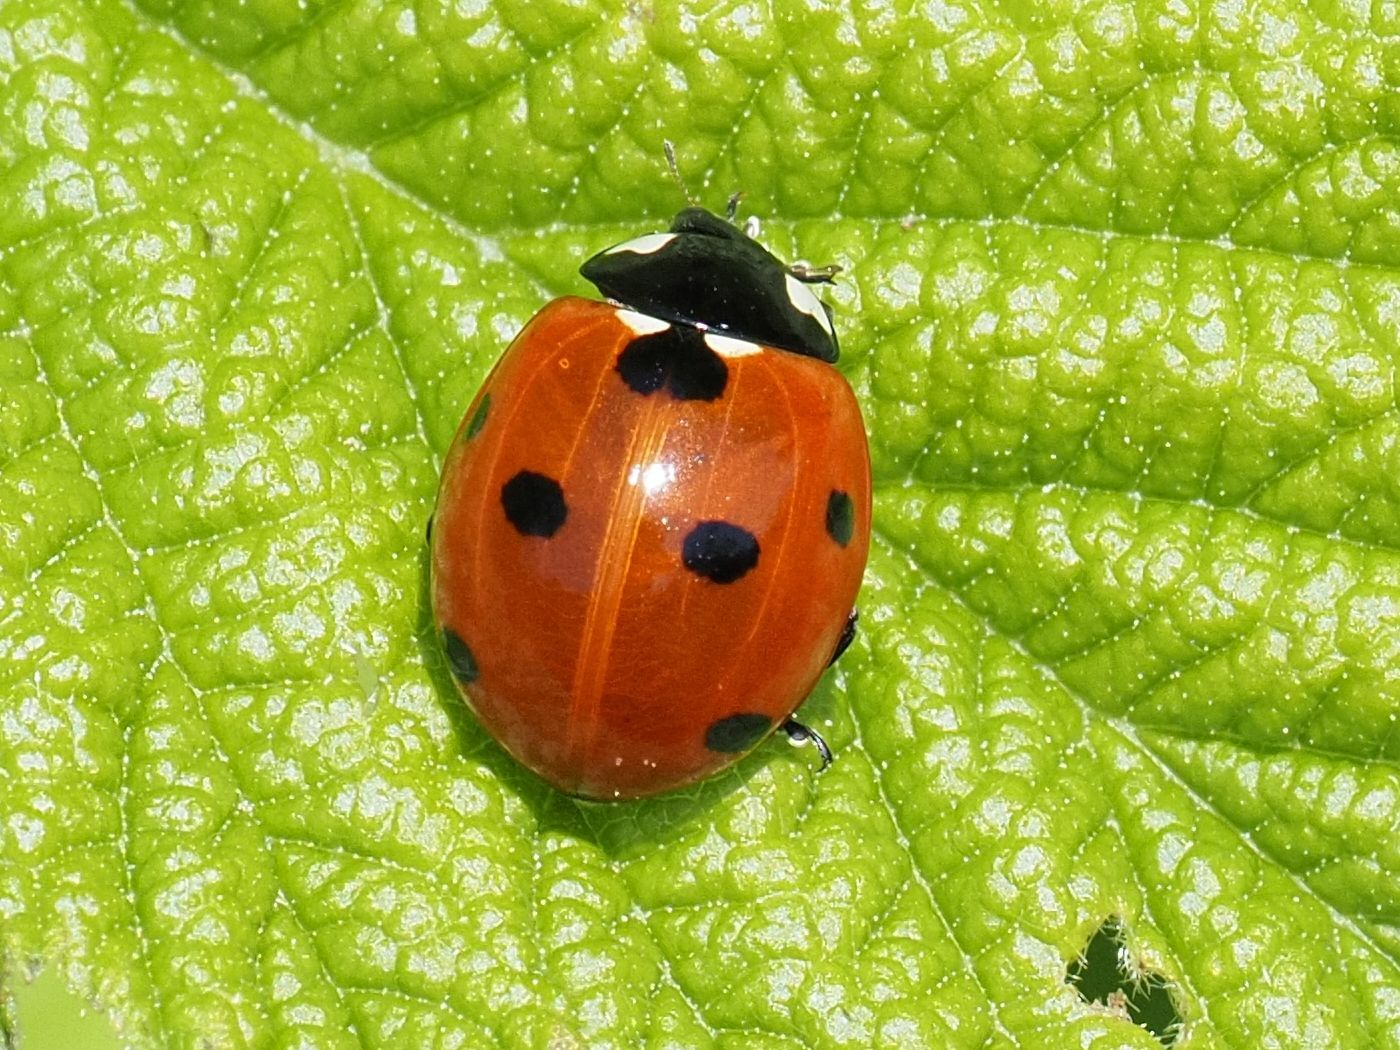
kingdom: Animalia
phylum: Arthropoda
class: Insecta
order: Coleoptera
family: Coccinellidae
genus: Coccinella
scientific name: Coccinella septempunctata
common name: Sevenspotted lady beetle
